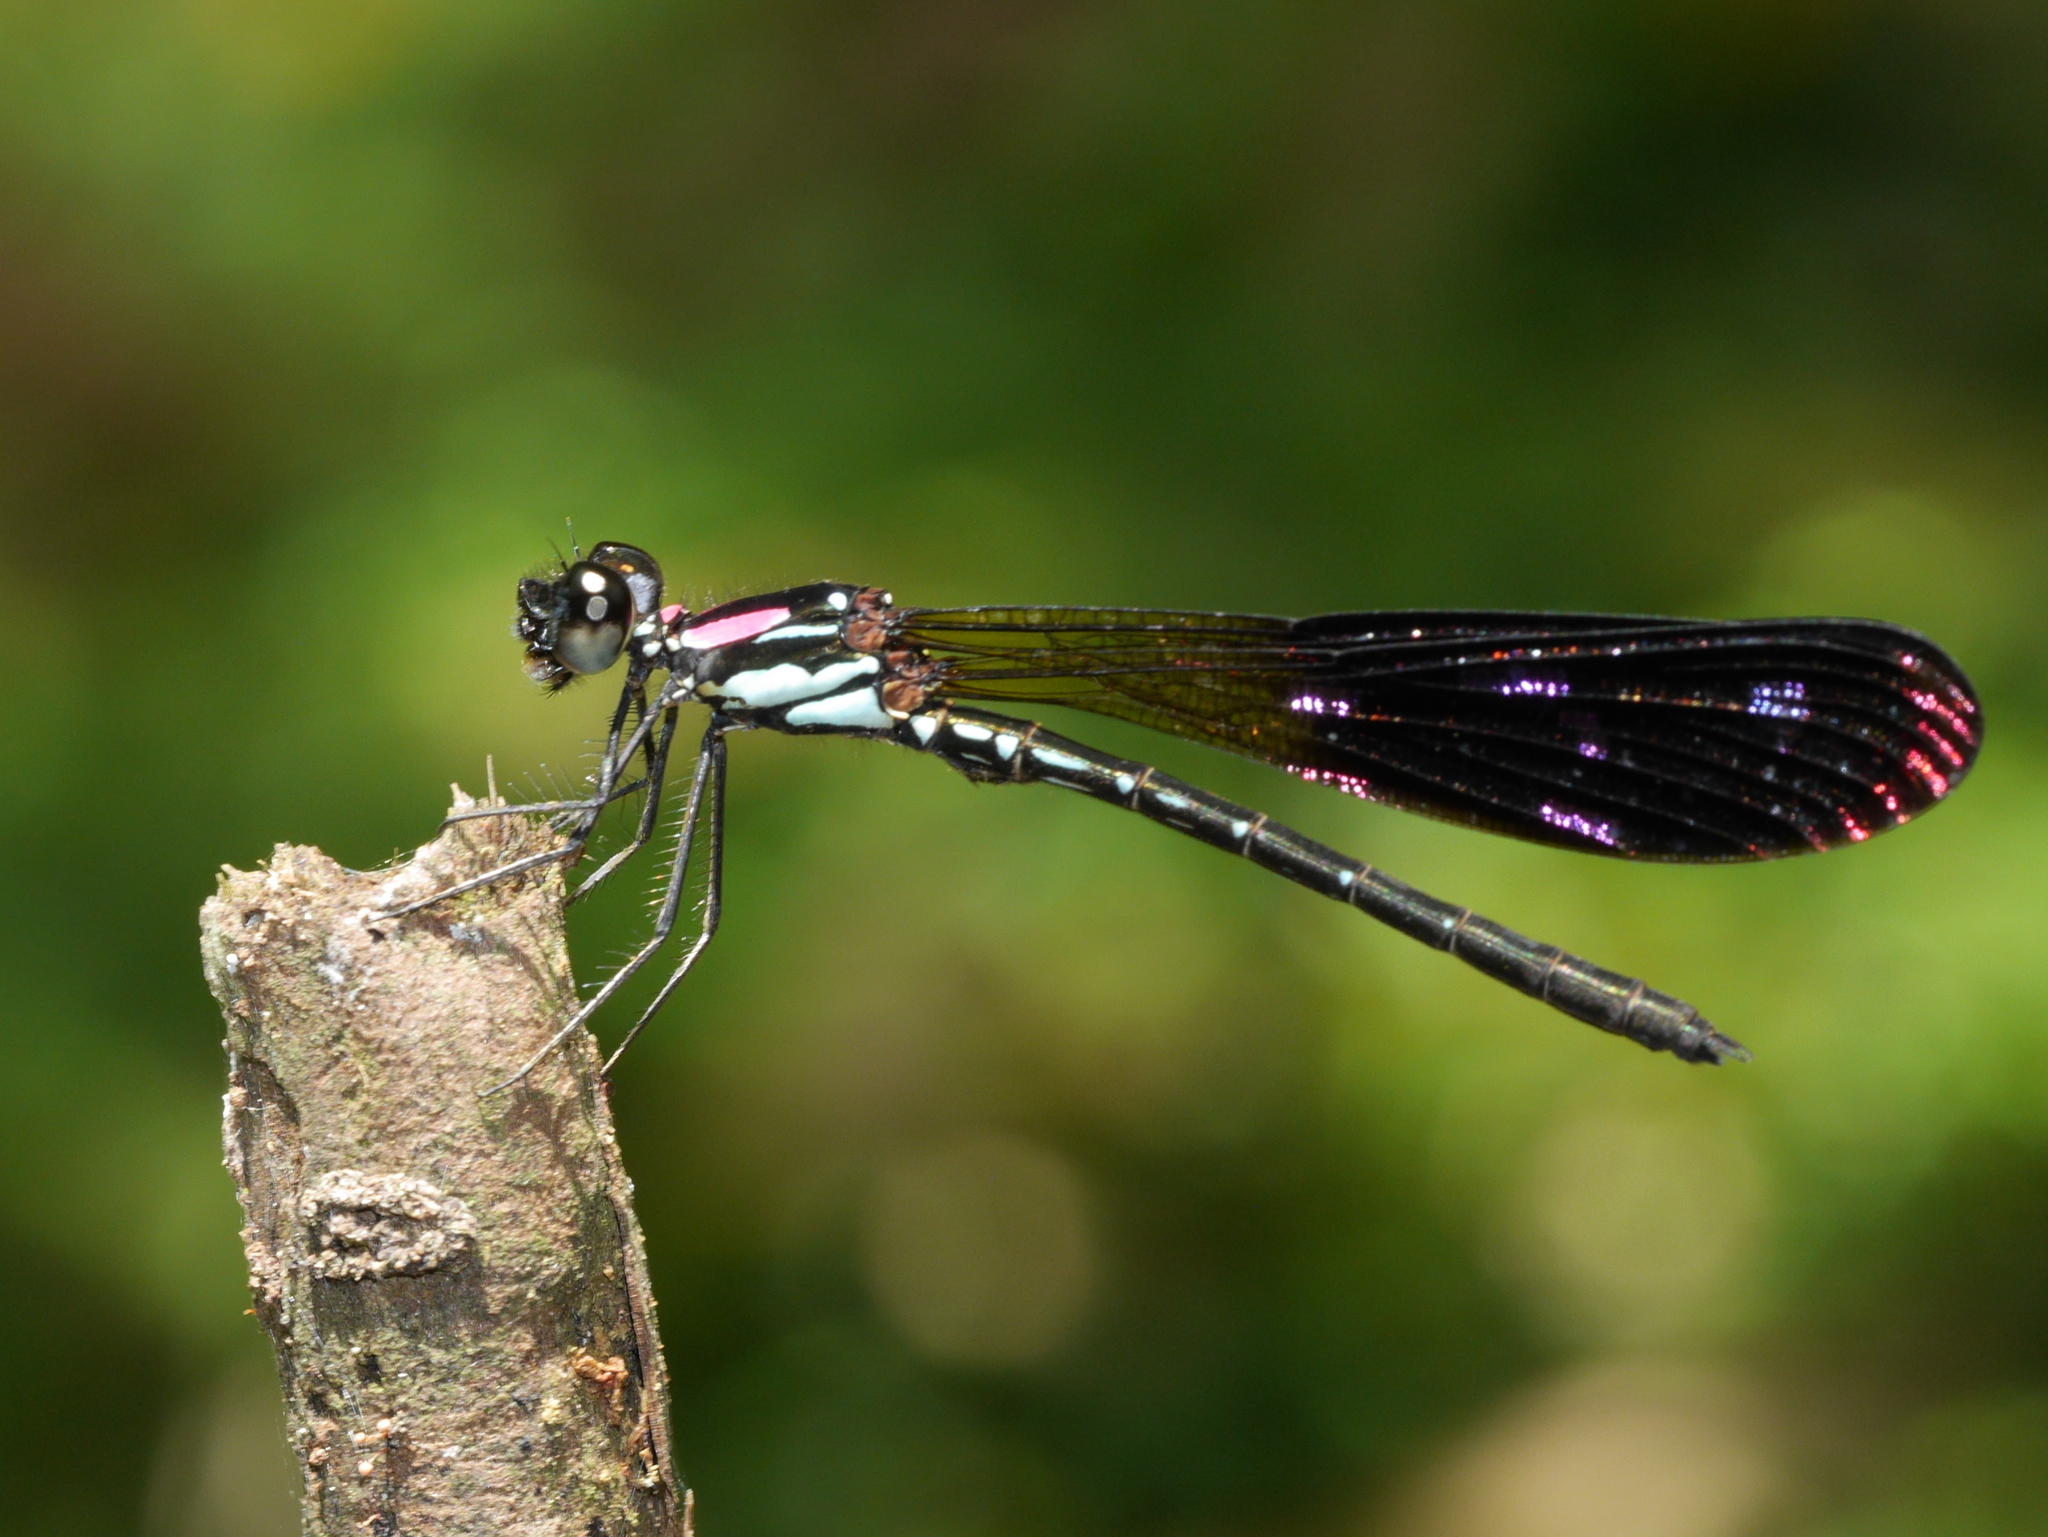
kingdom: Animalia
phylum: Arthropoda
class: Insecta
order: Odonata
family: Chlorocyphidae
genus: Heliocypha
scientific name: Heliocypha fenestrata
